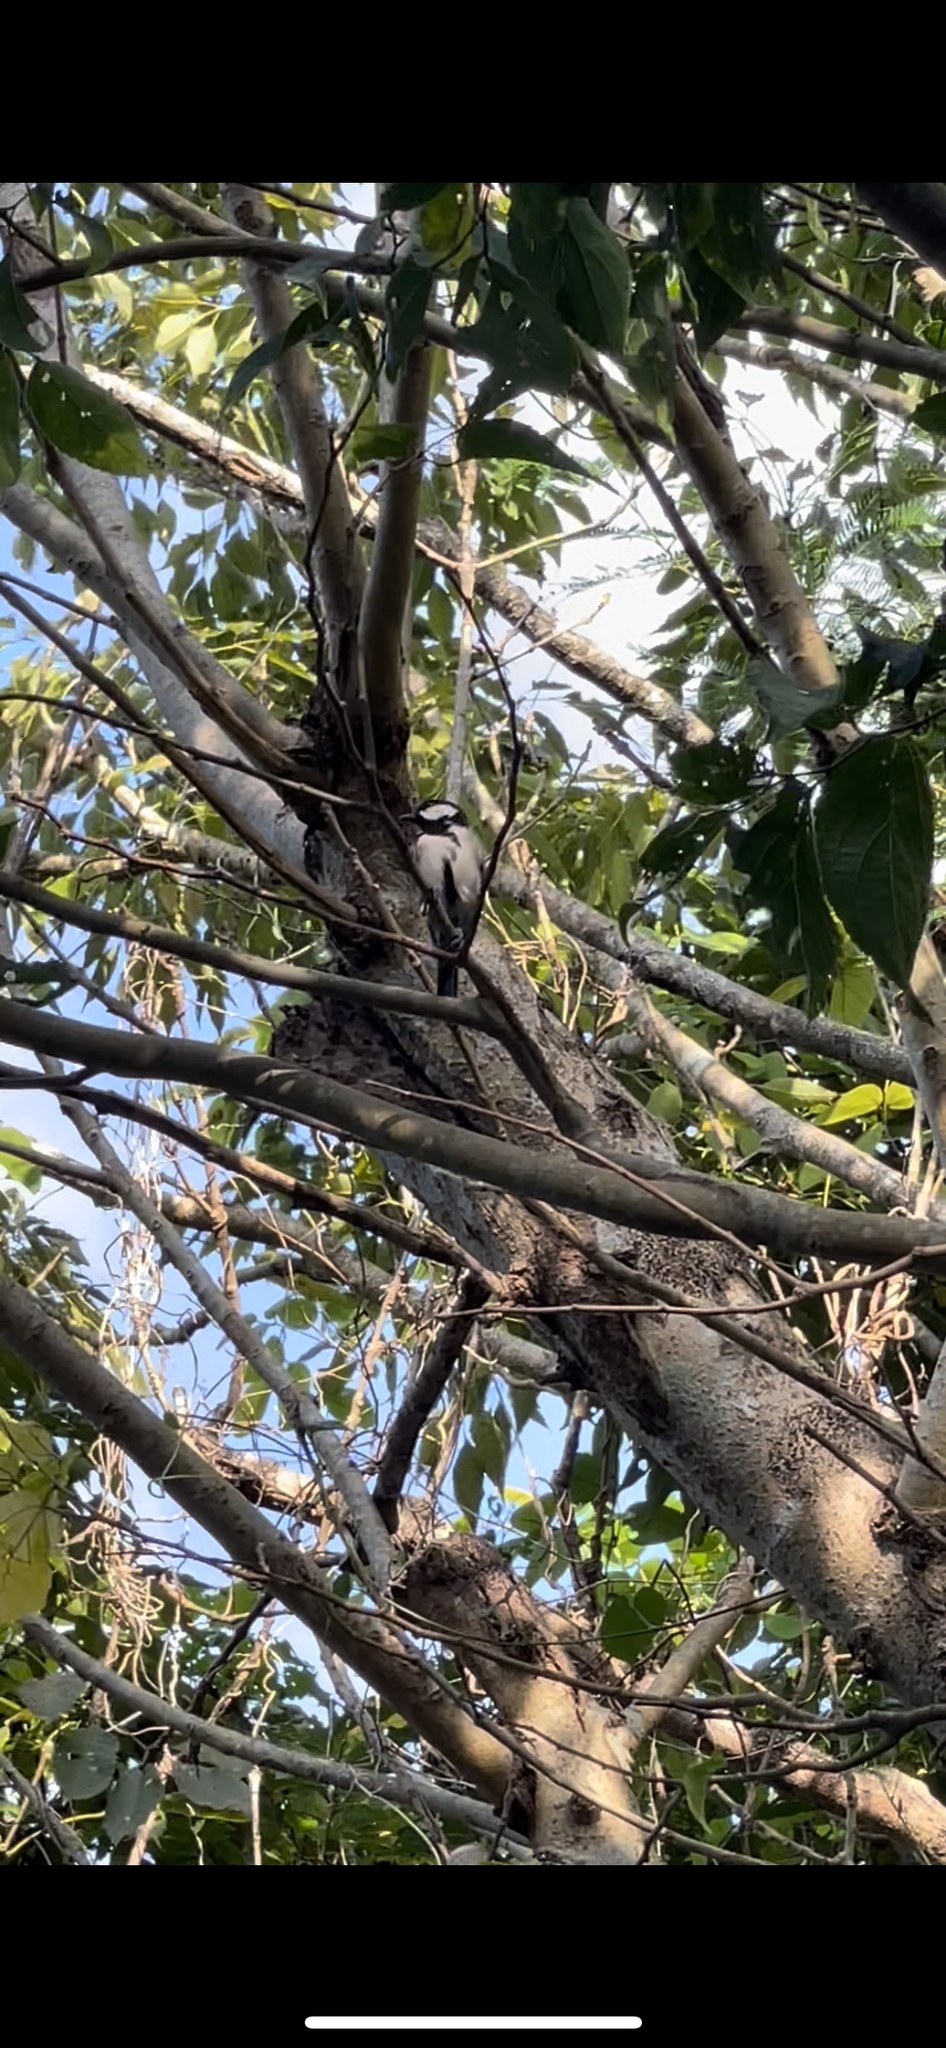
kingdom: Animalia
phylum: Chordata
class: Aves
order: Passeriformes
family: Paridae
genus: Parus
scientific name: Parus minor
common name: Japanese tit
